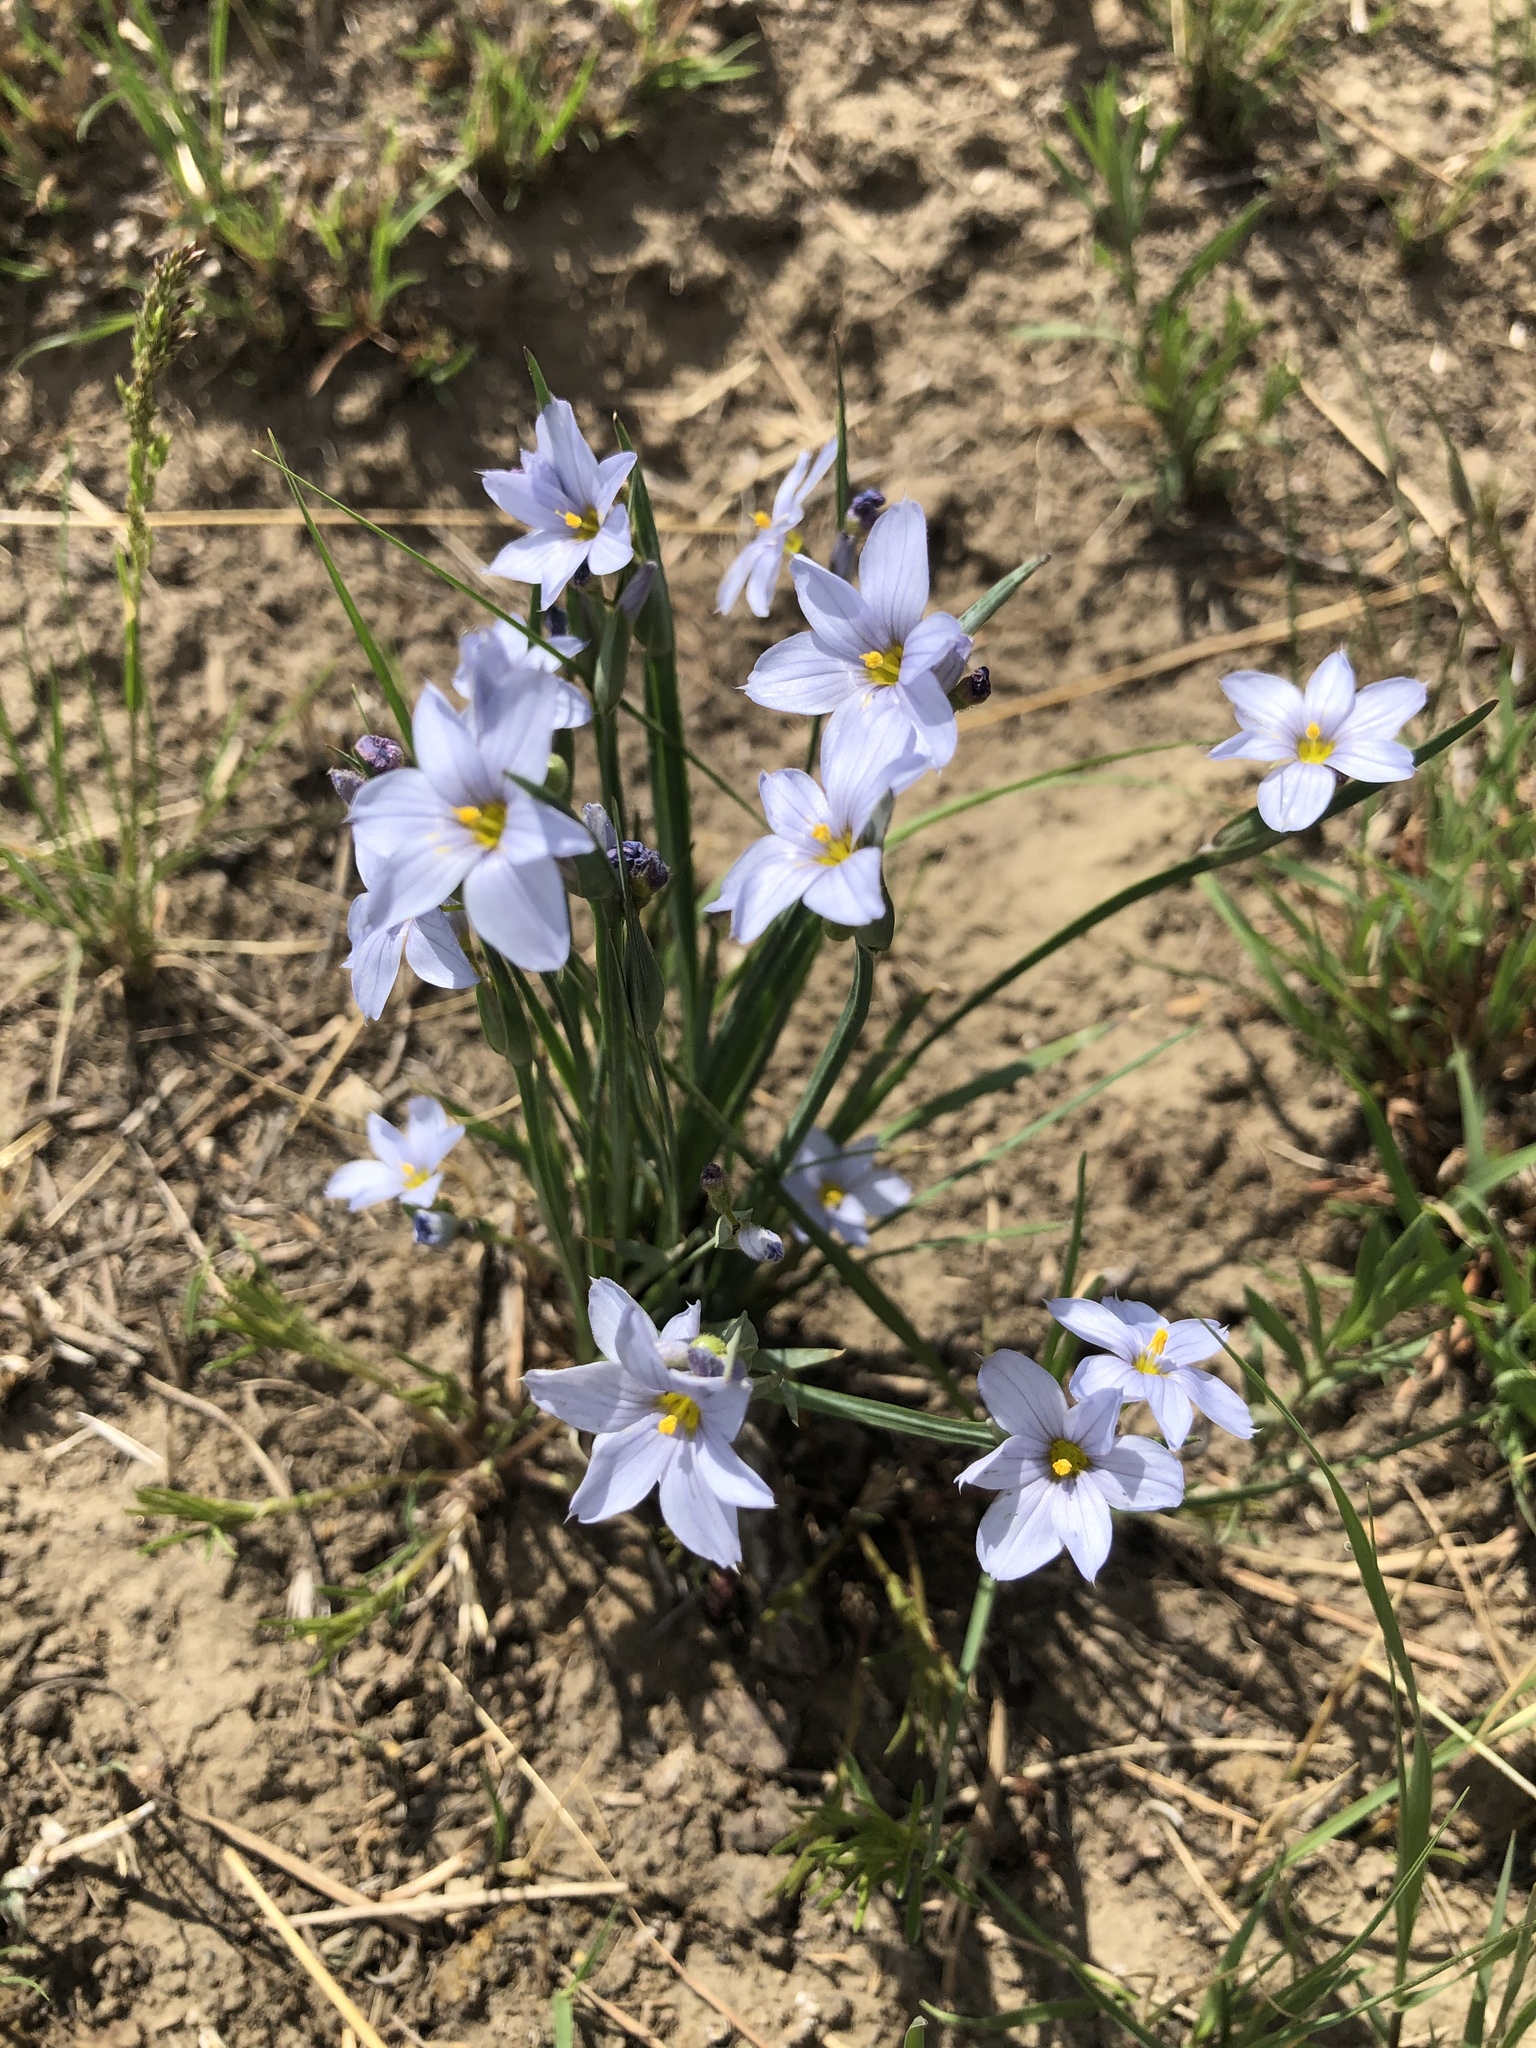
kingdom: Plantae
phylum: Tracheophyta
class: Liliopsida
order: Asparagales
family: Iridaceae
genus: Sisyrinchium
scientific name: Sisyrinchium campestre
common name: Prairie blue-eyed-grass
